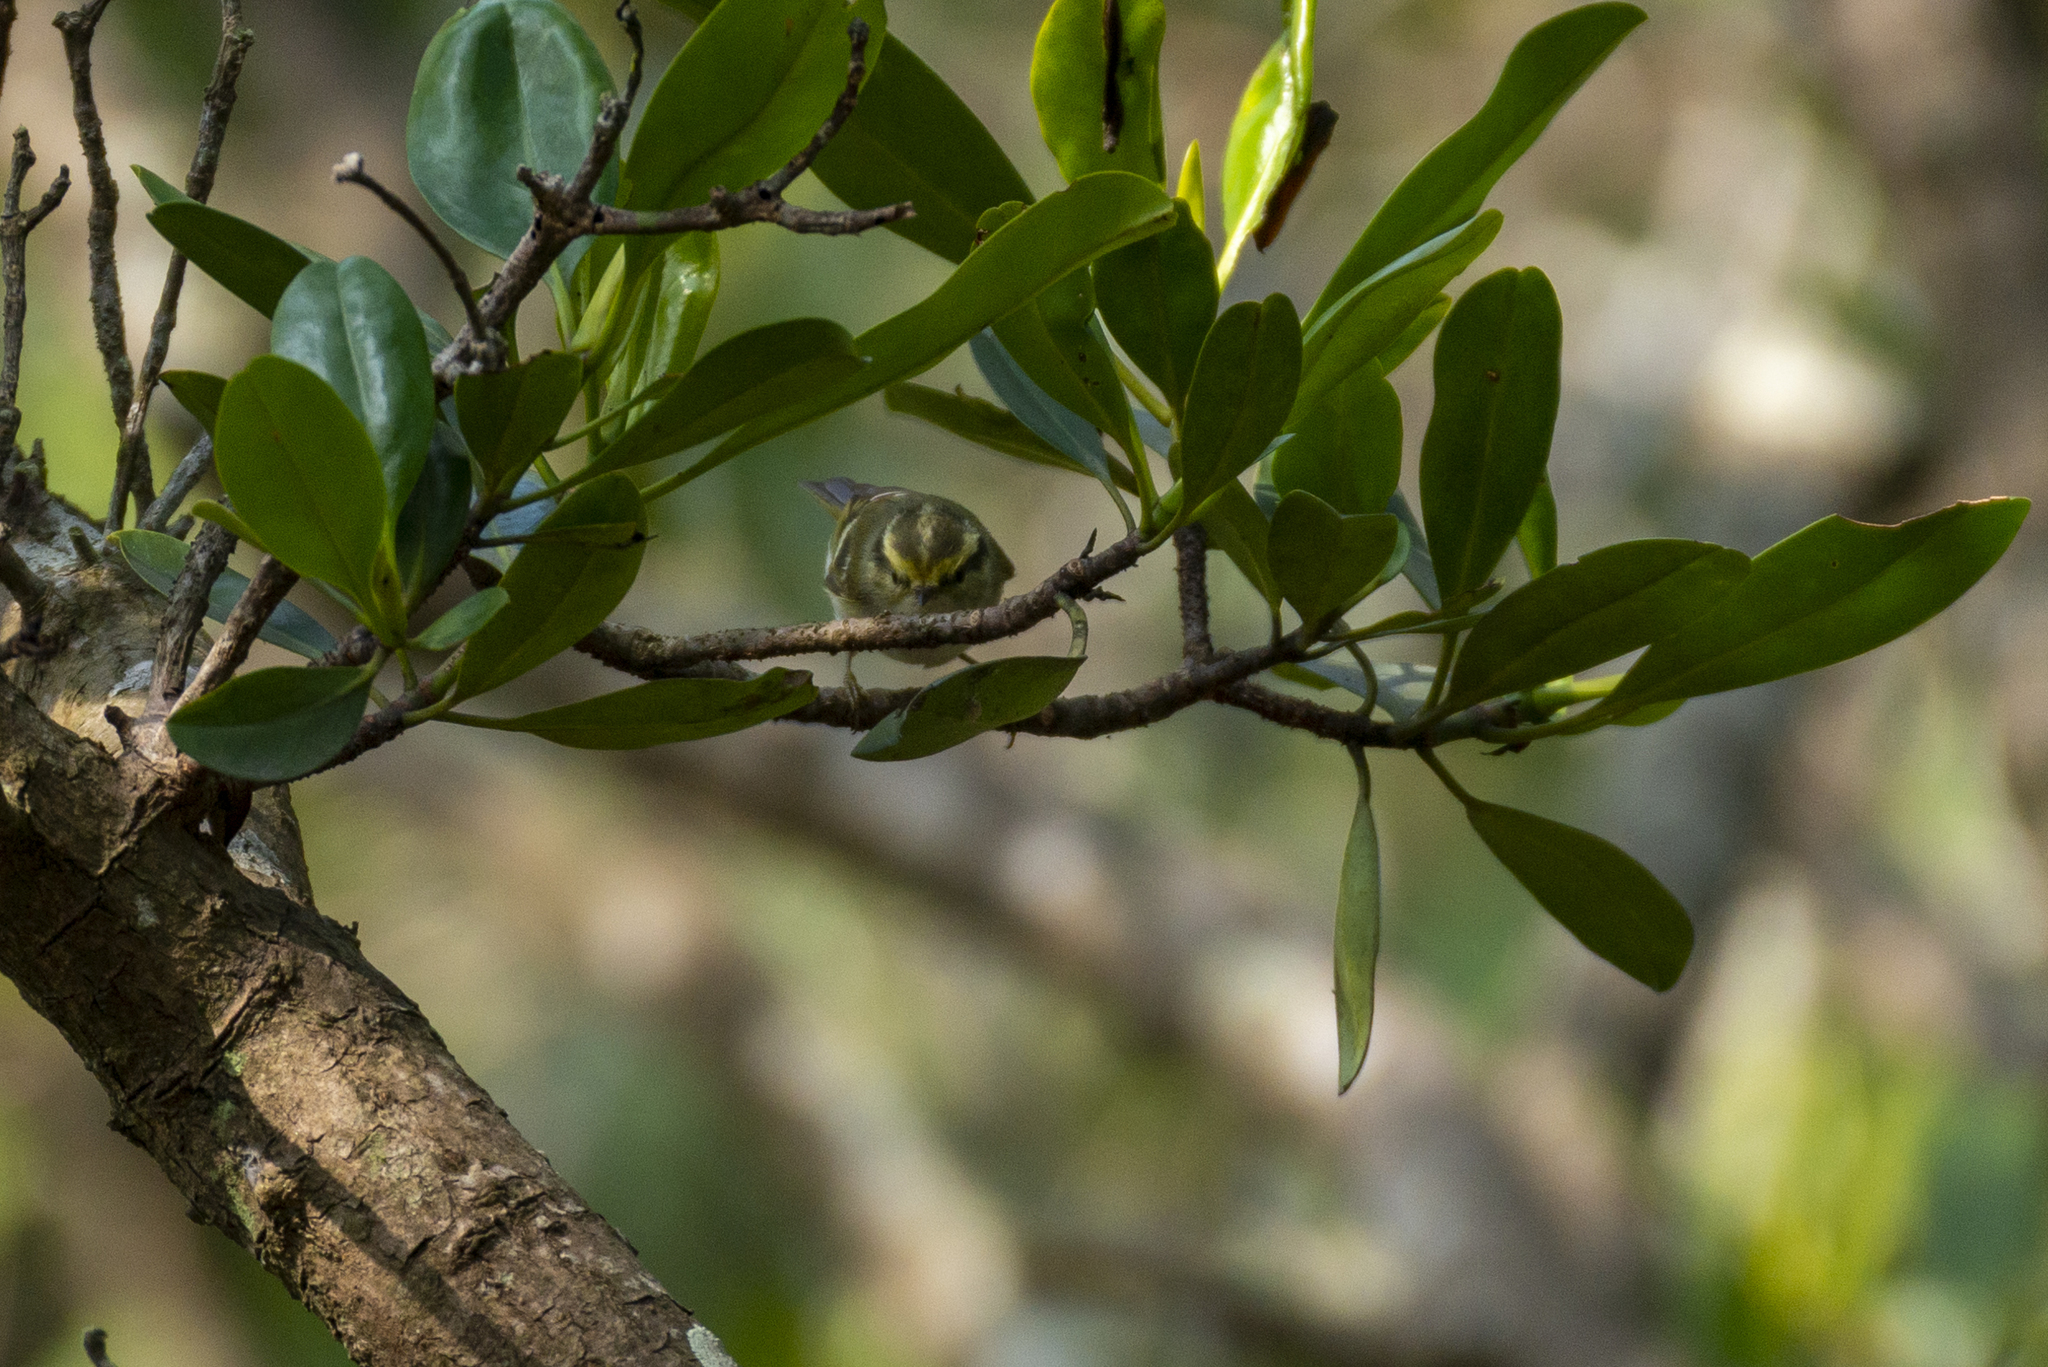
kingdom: Animalia
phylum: Chordata
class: Aves
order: Passeriformes
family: Phylloscopidae
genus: Phylloscopus
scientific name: Phylloscopus proregulus
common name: Pallas's leaf warbler
